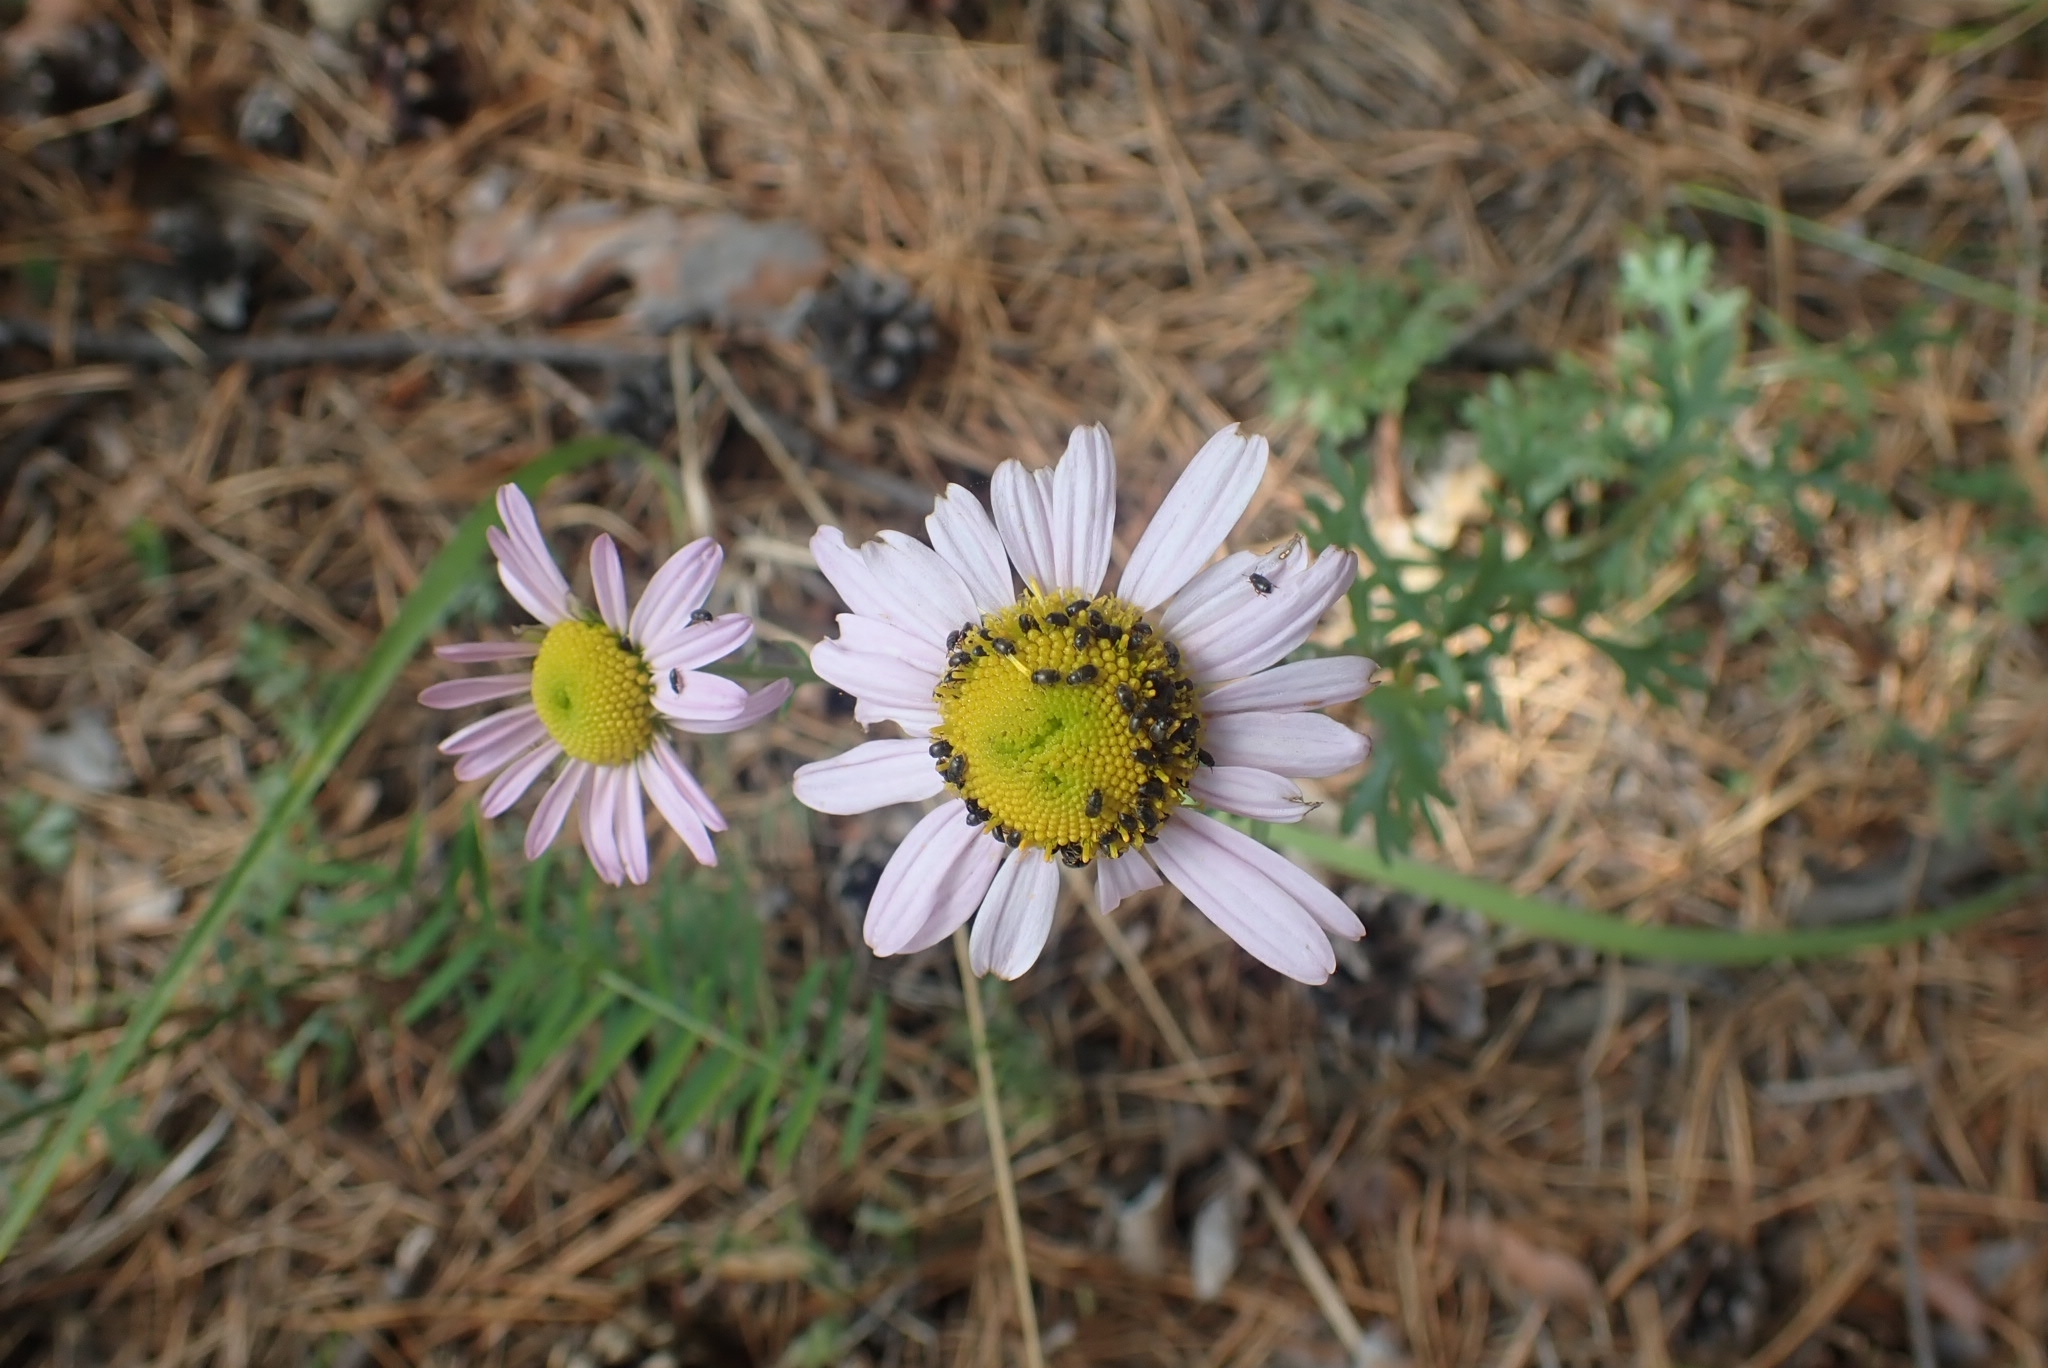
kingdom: Plantae
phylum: Tracheophyta
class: Magnoliopsida
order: Asterales
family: Asteraceae
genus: Chrysanthemum
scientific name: Chrysanthemum zawadzkii
